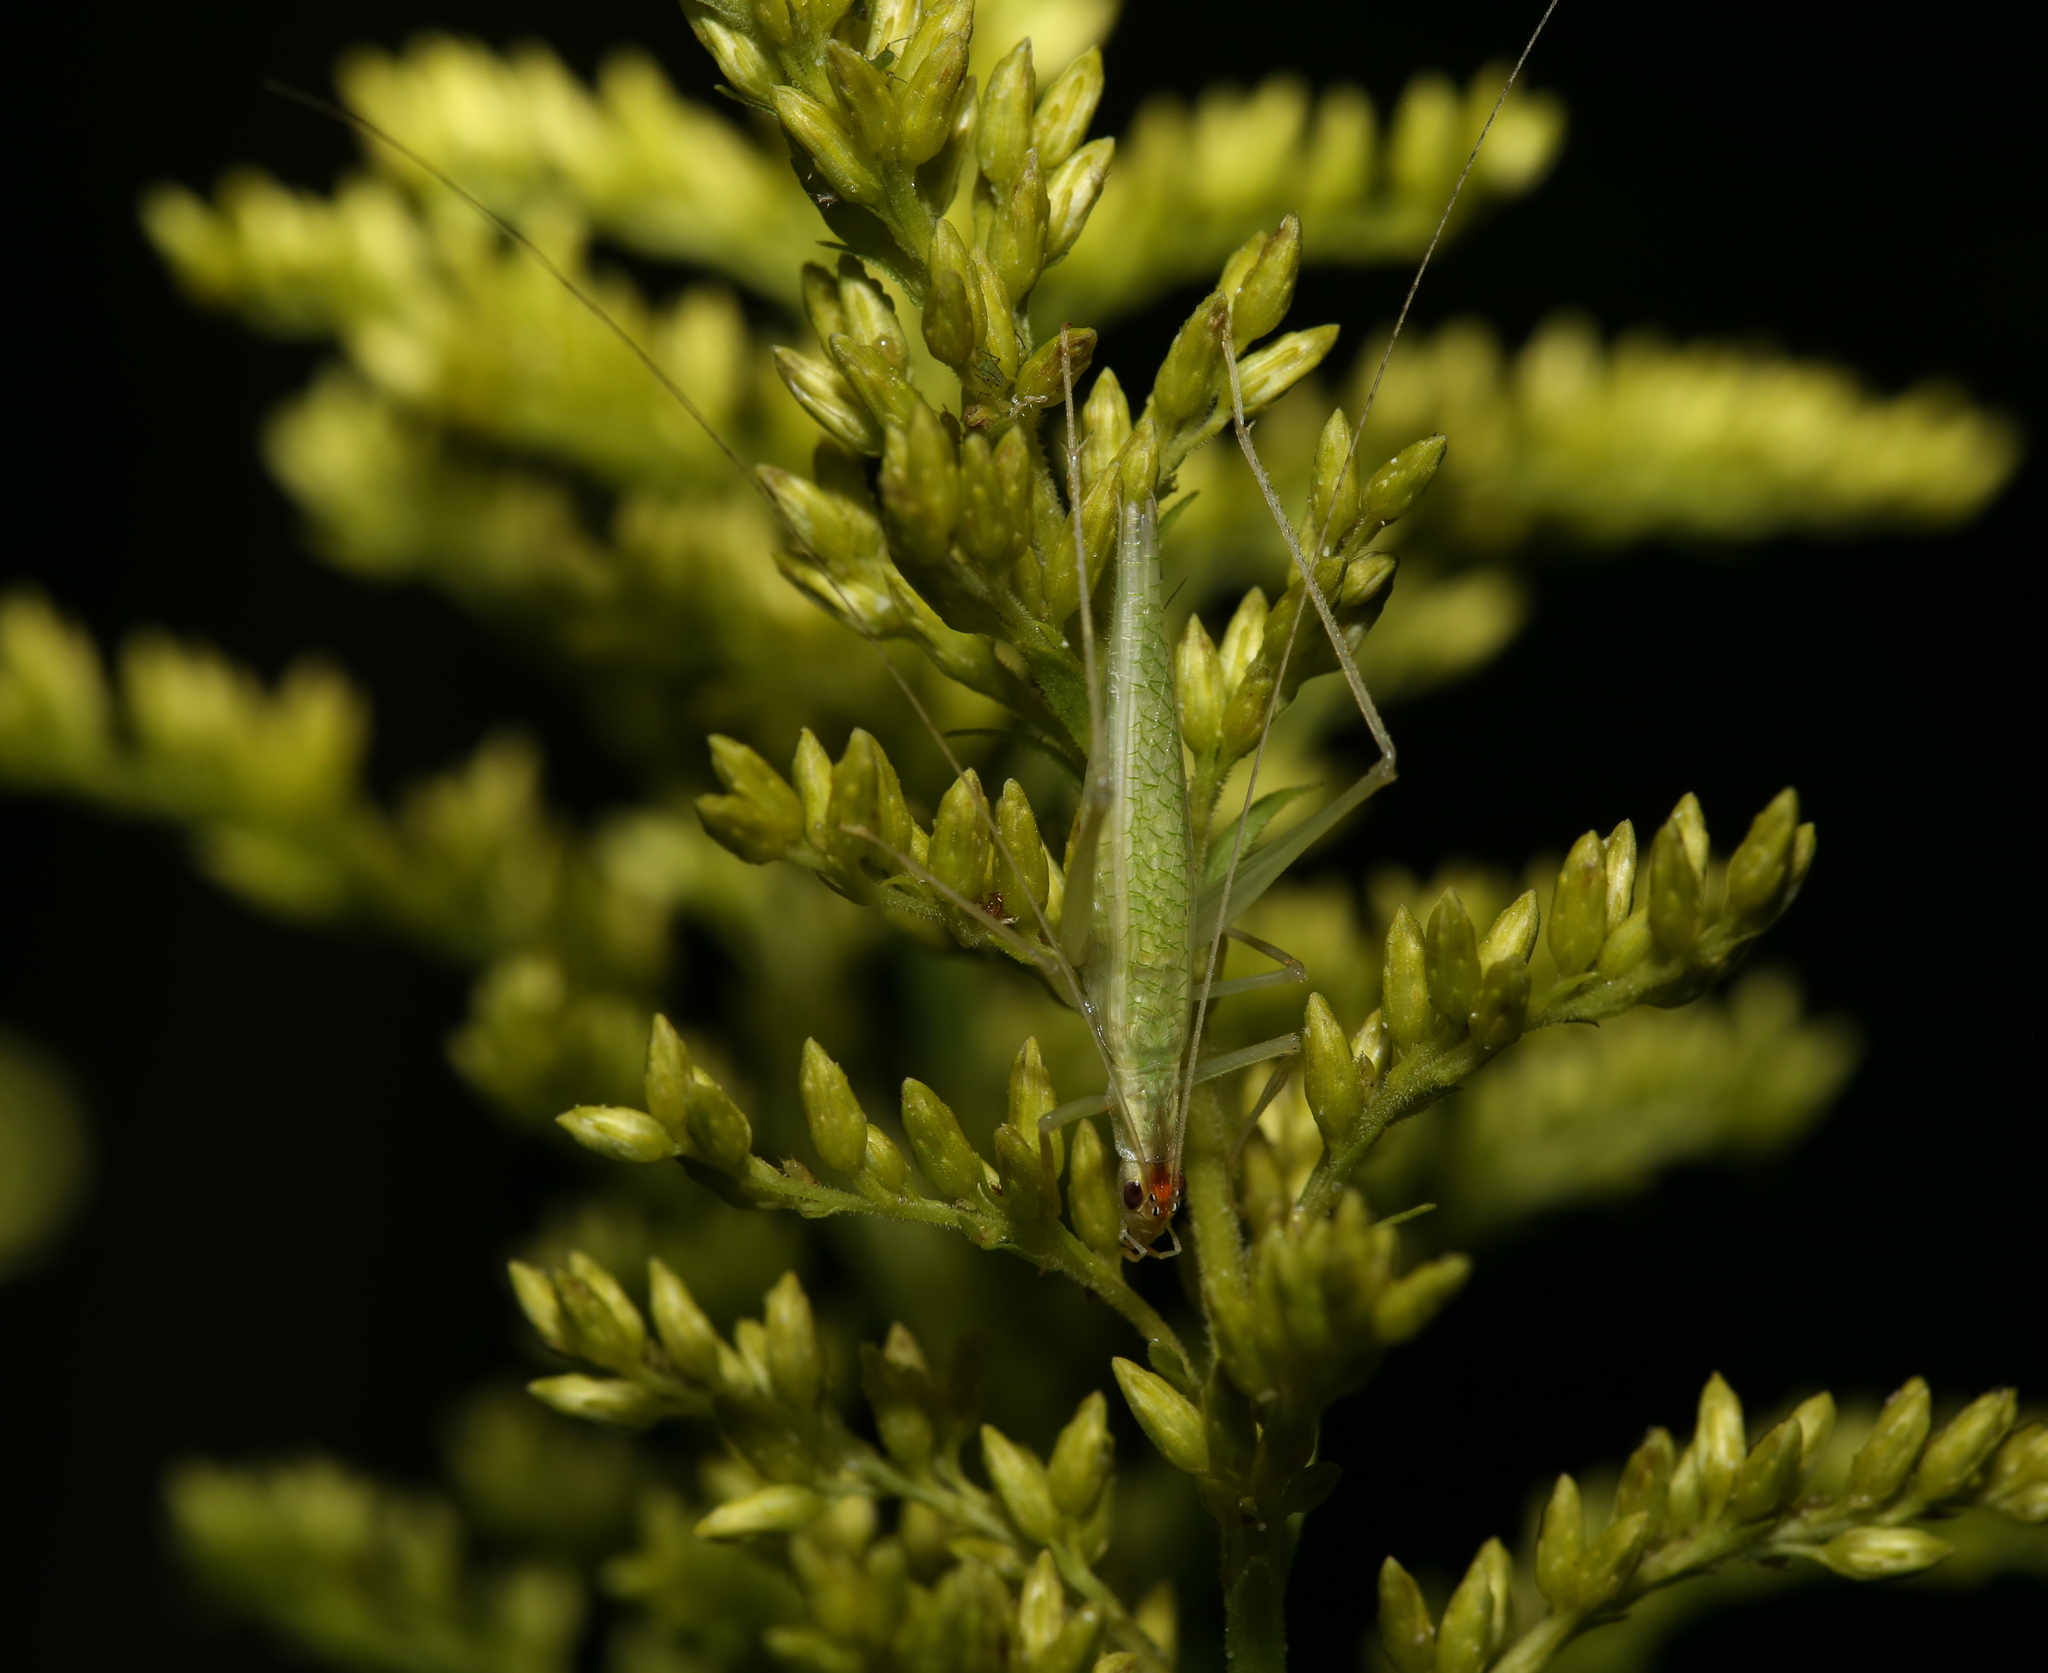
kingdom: Animalia
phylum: Arthropoda
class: Insecta
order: Orthoptera
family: Gryllidae
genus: Oecanthus
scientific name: Oecanthus niveus
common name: Narrow-winged tree cricket
